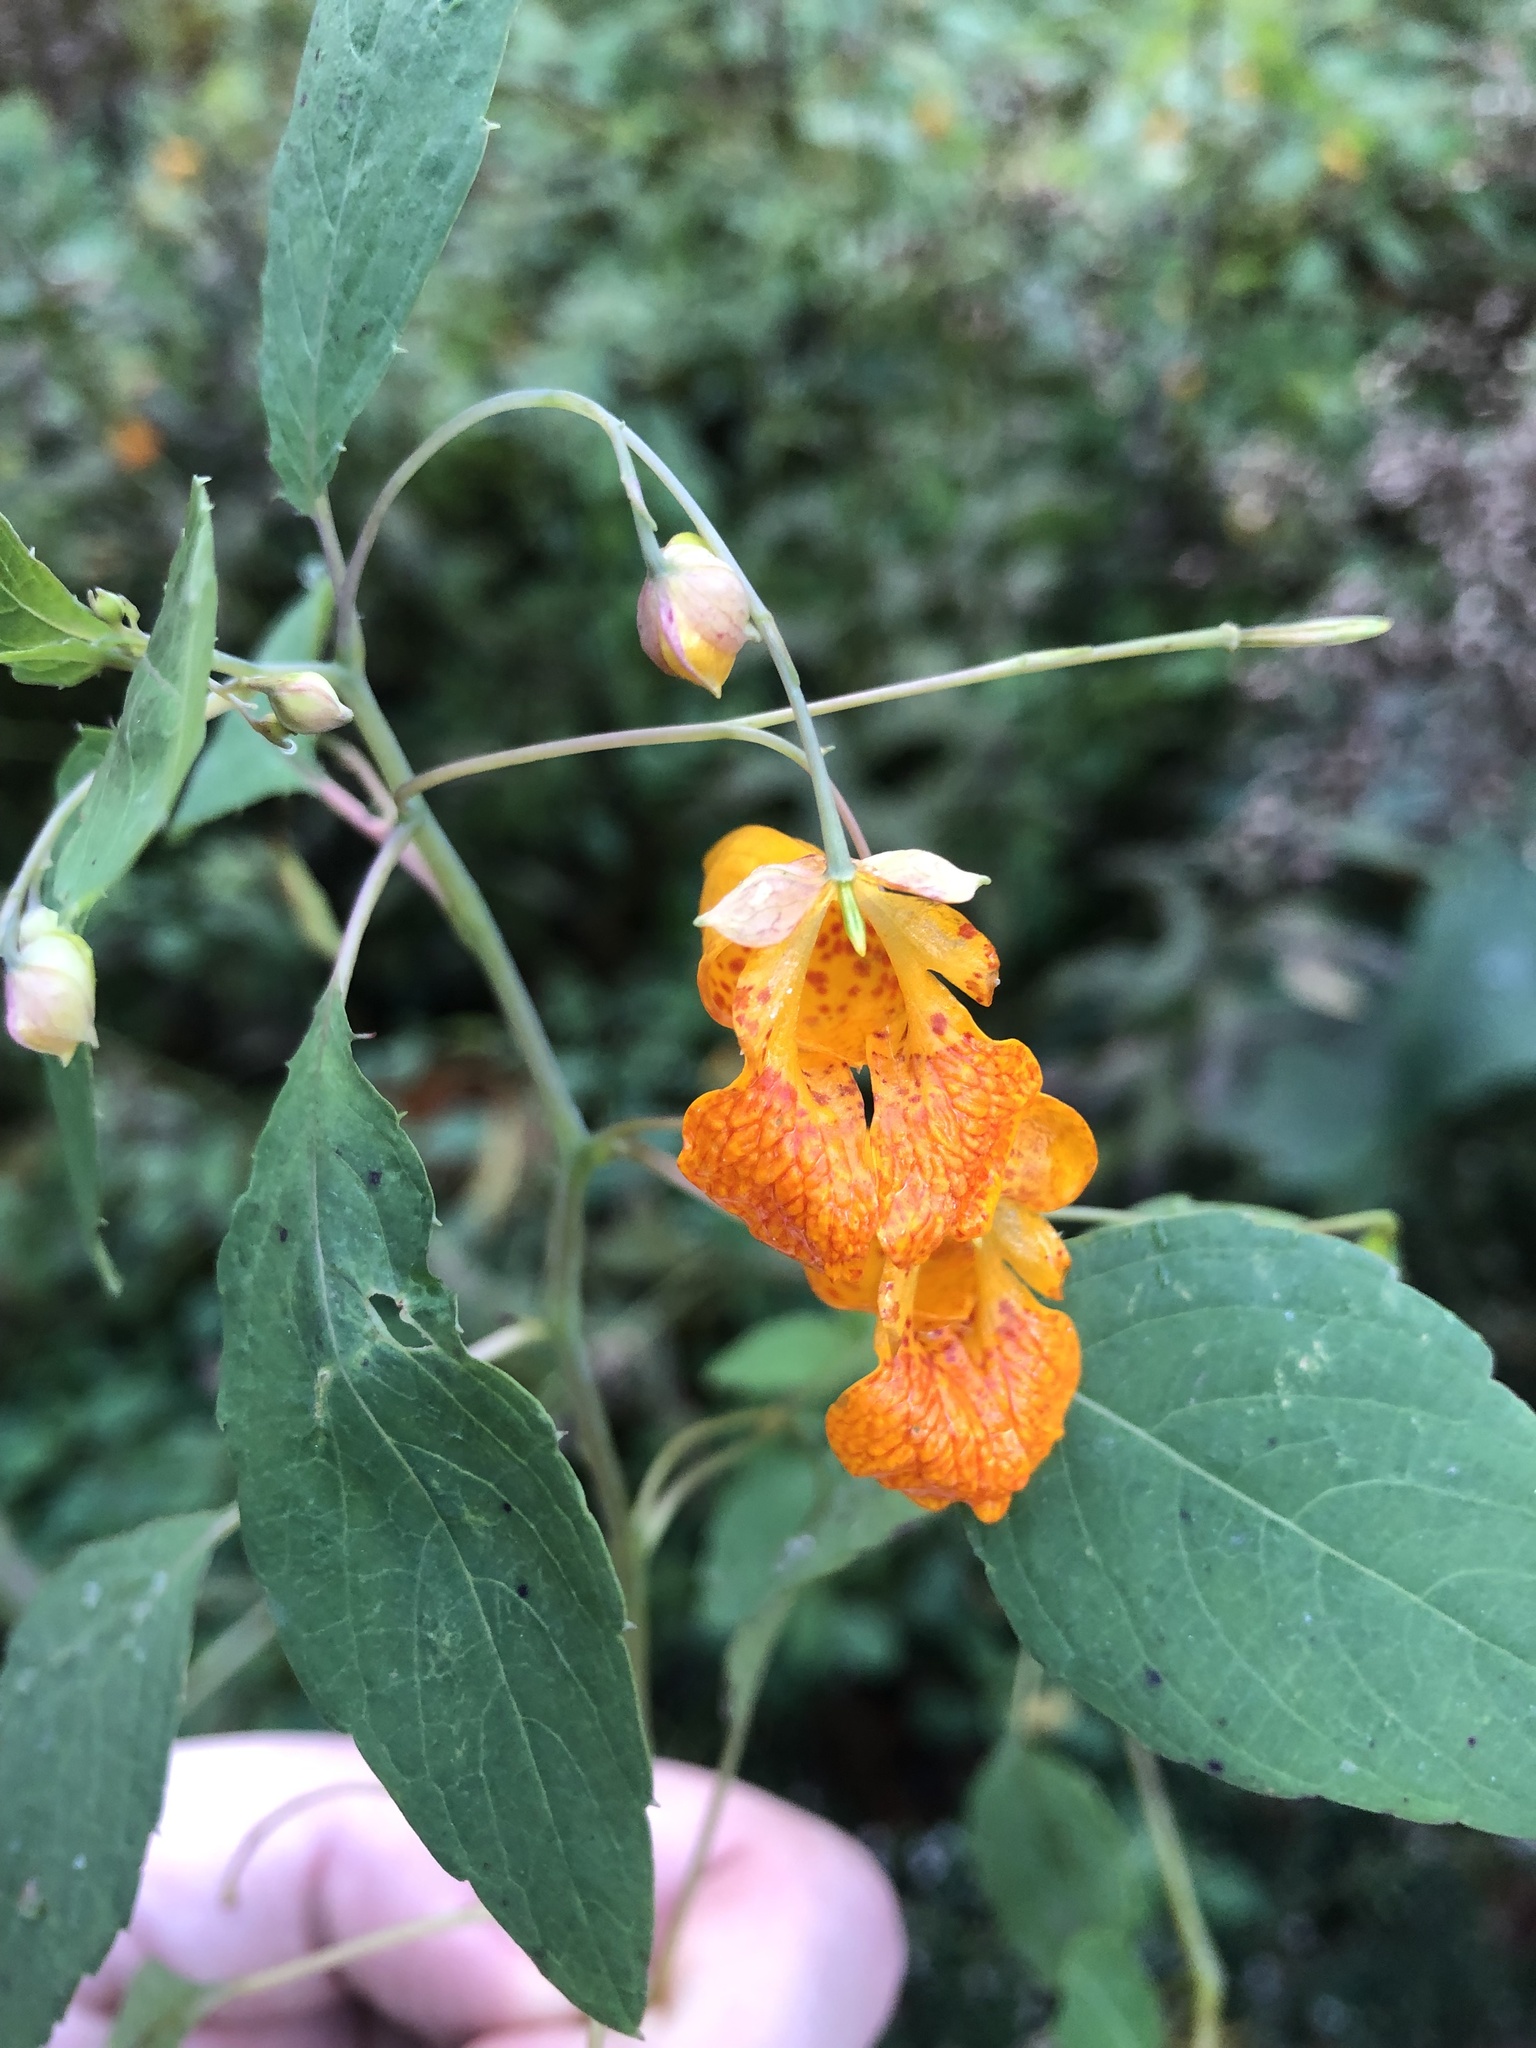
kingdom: Plantae
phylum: Tracheophyta
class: Magnoliopsida
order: Ericales
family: Balsaminaceae
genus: Impatiens
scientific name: Impatiens capensis
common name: Orange balsam
